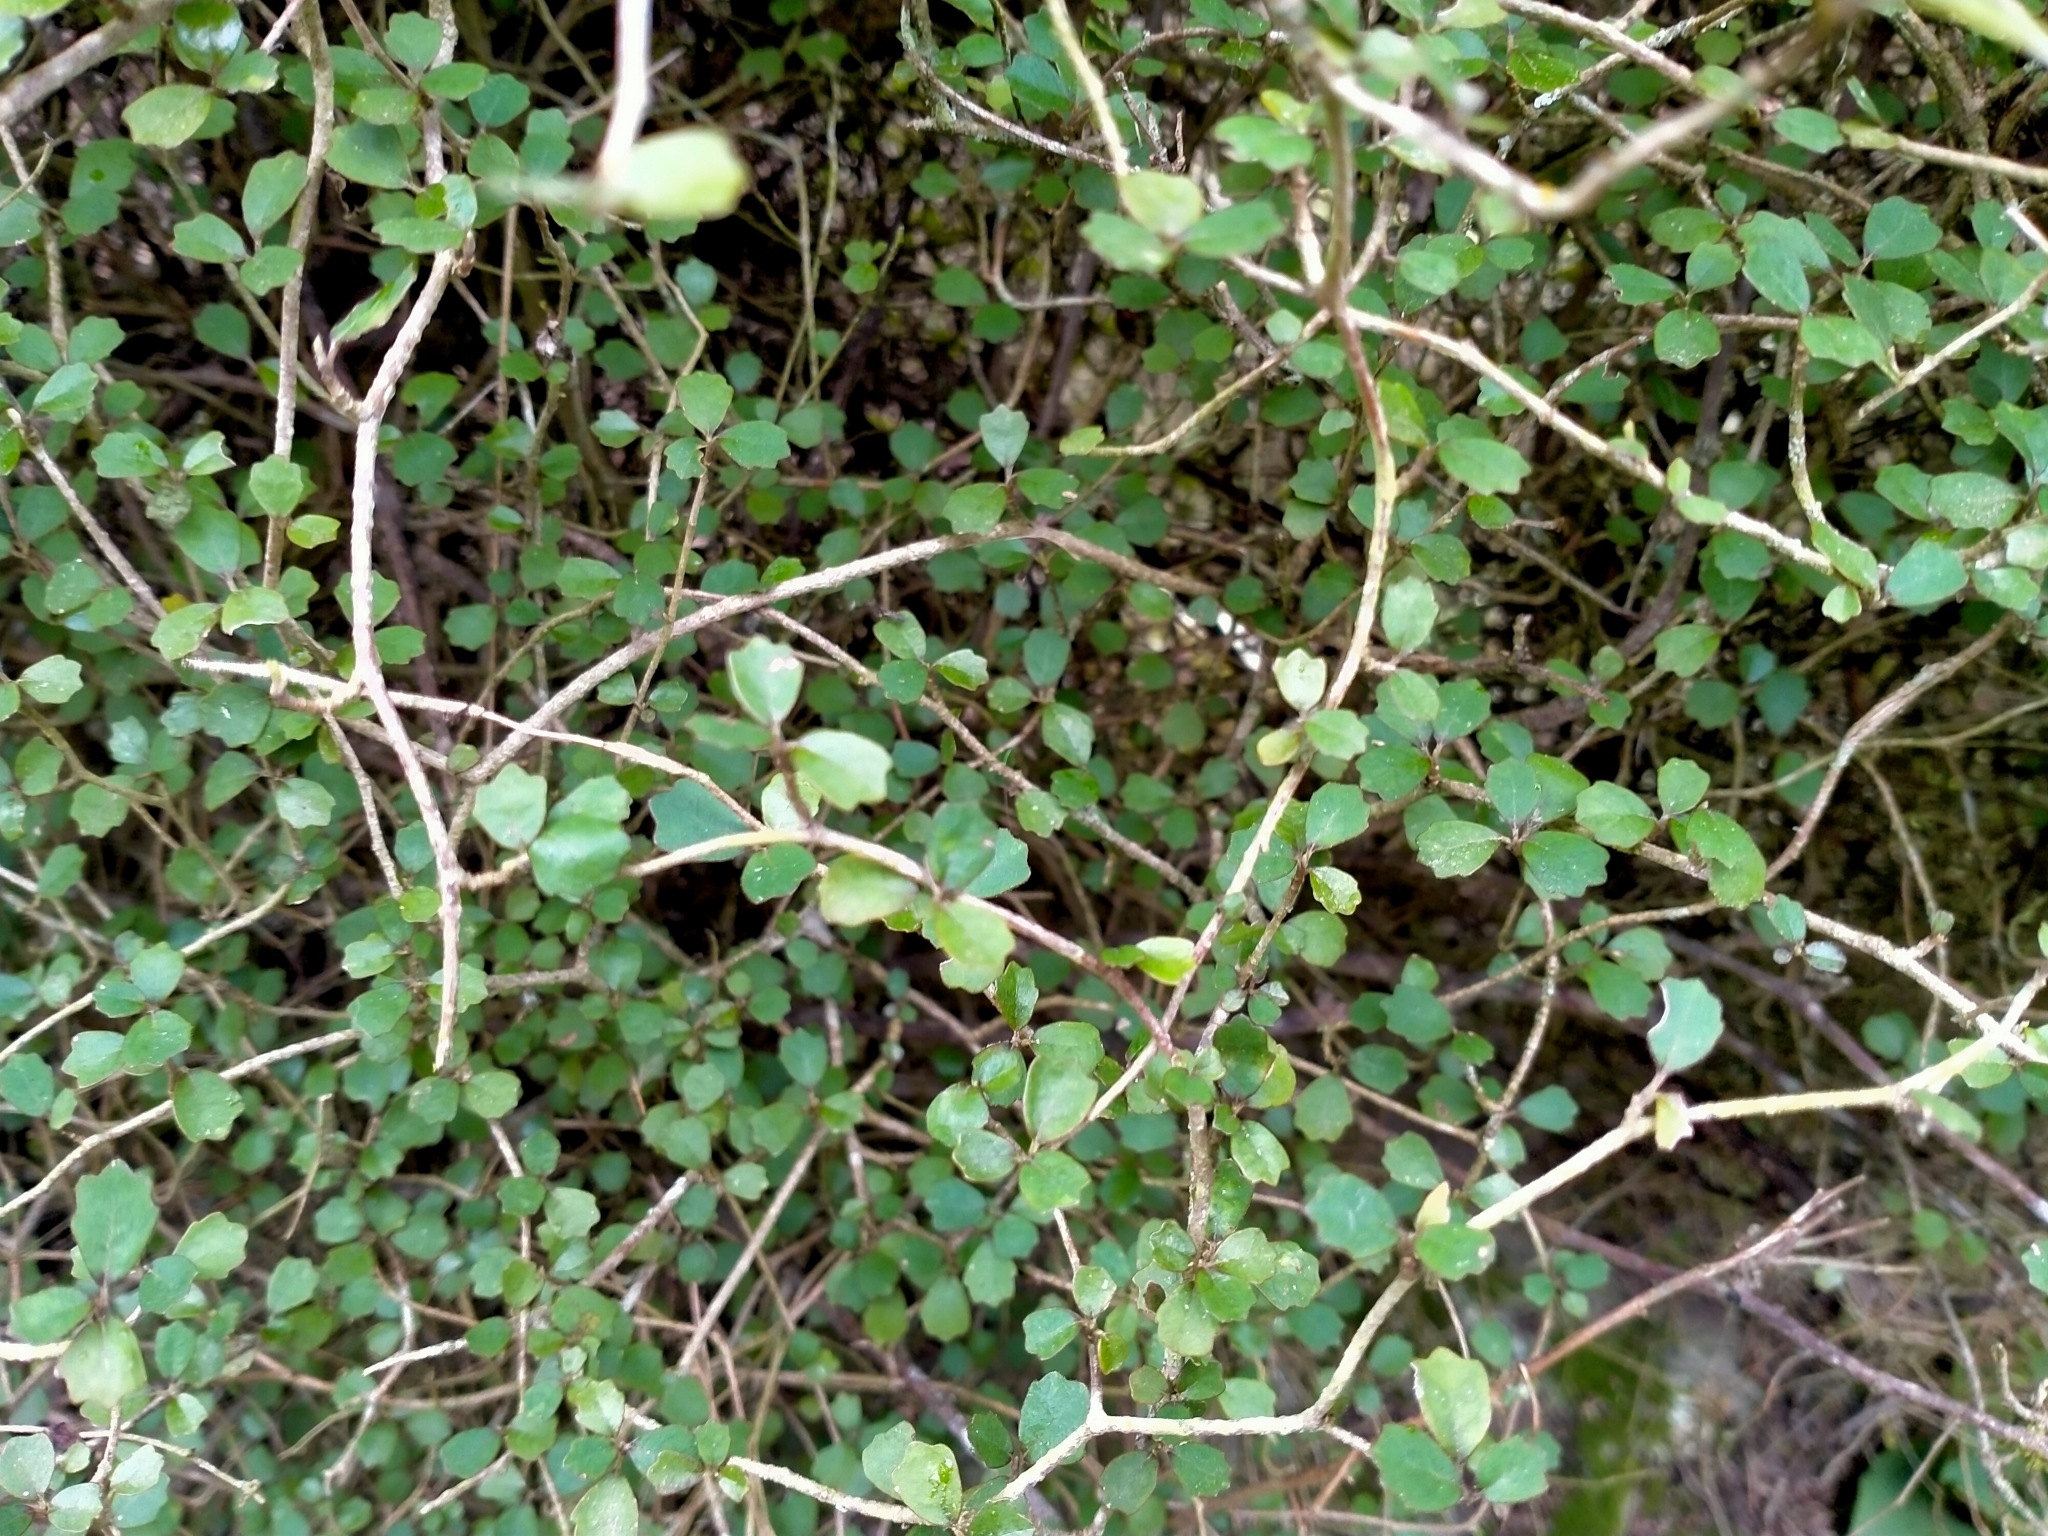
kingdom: Plantae
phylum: Tracheophyta
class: Magnoliopsida
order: Apiales
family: Pennantiaceae
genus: Pennantia
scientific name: Pennantia corymbosa
